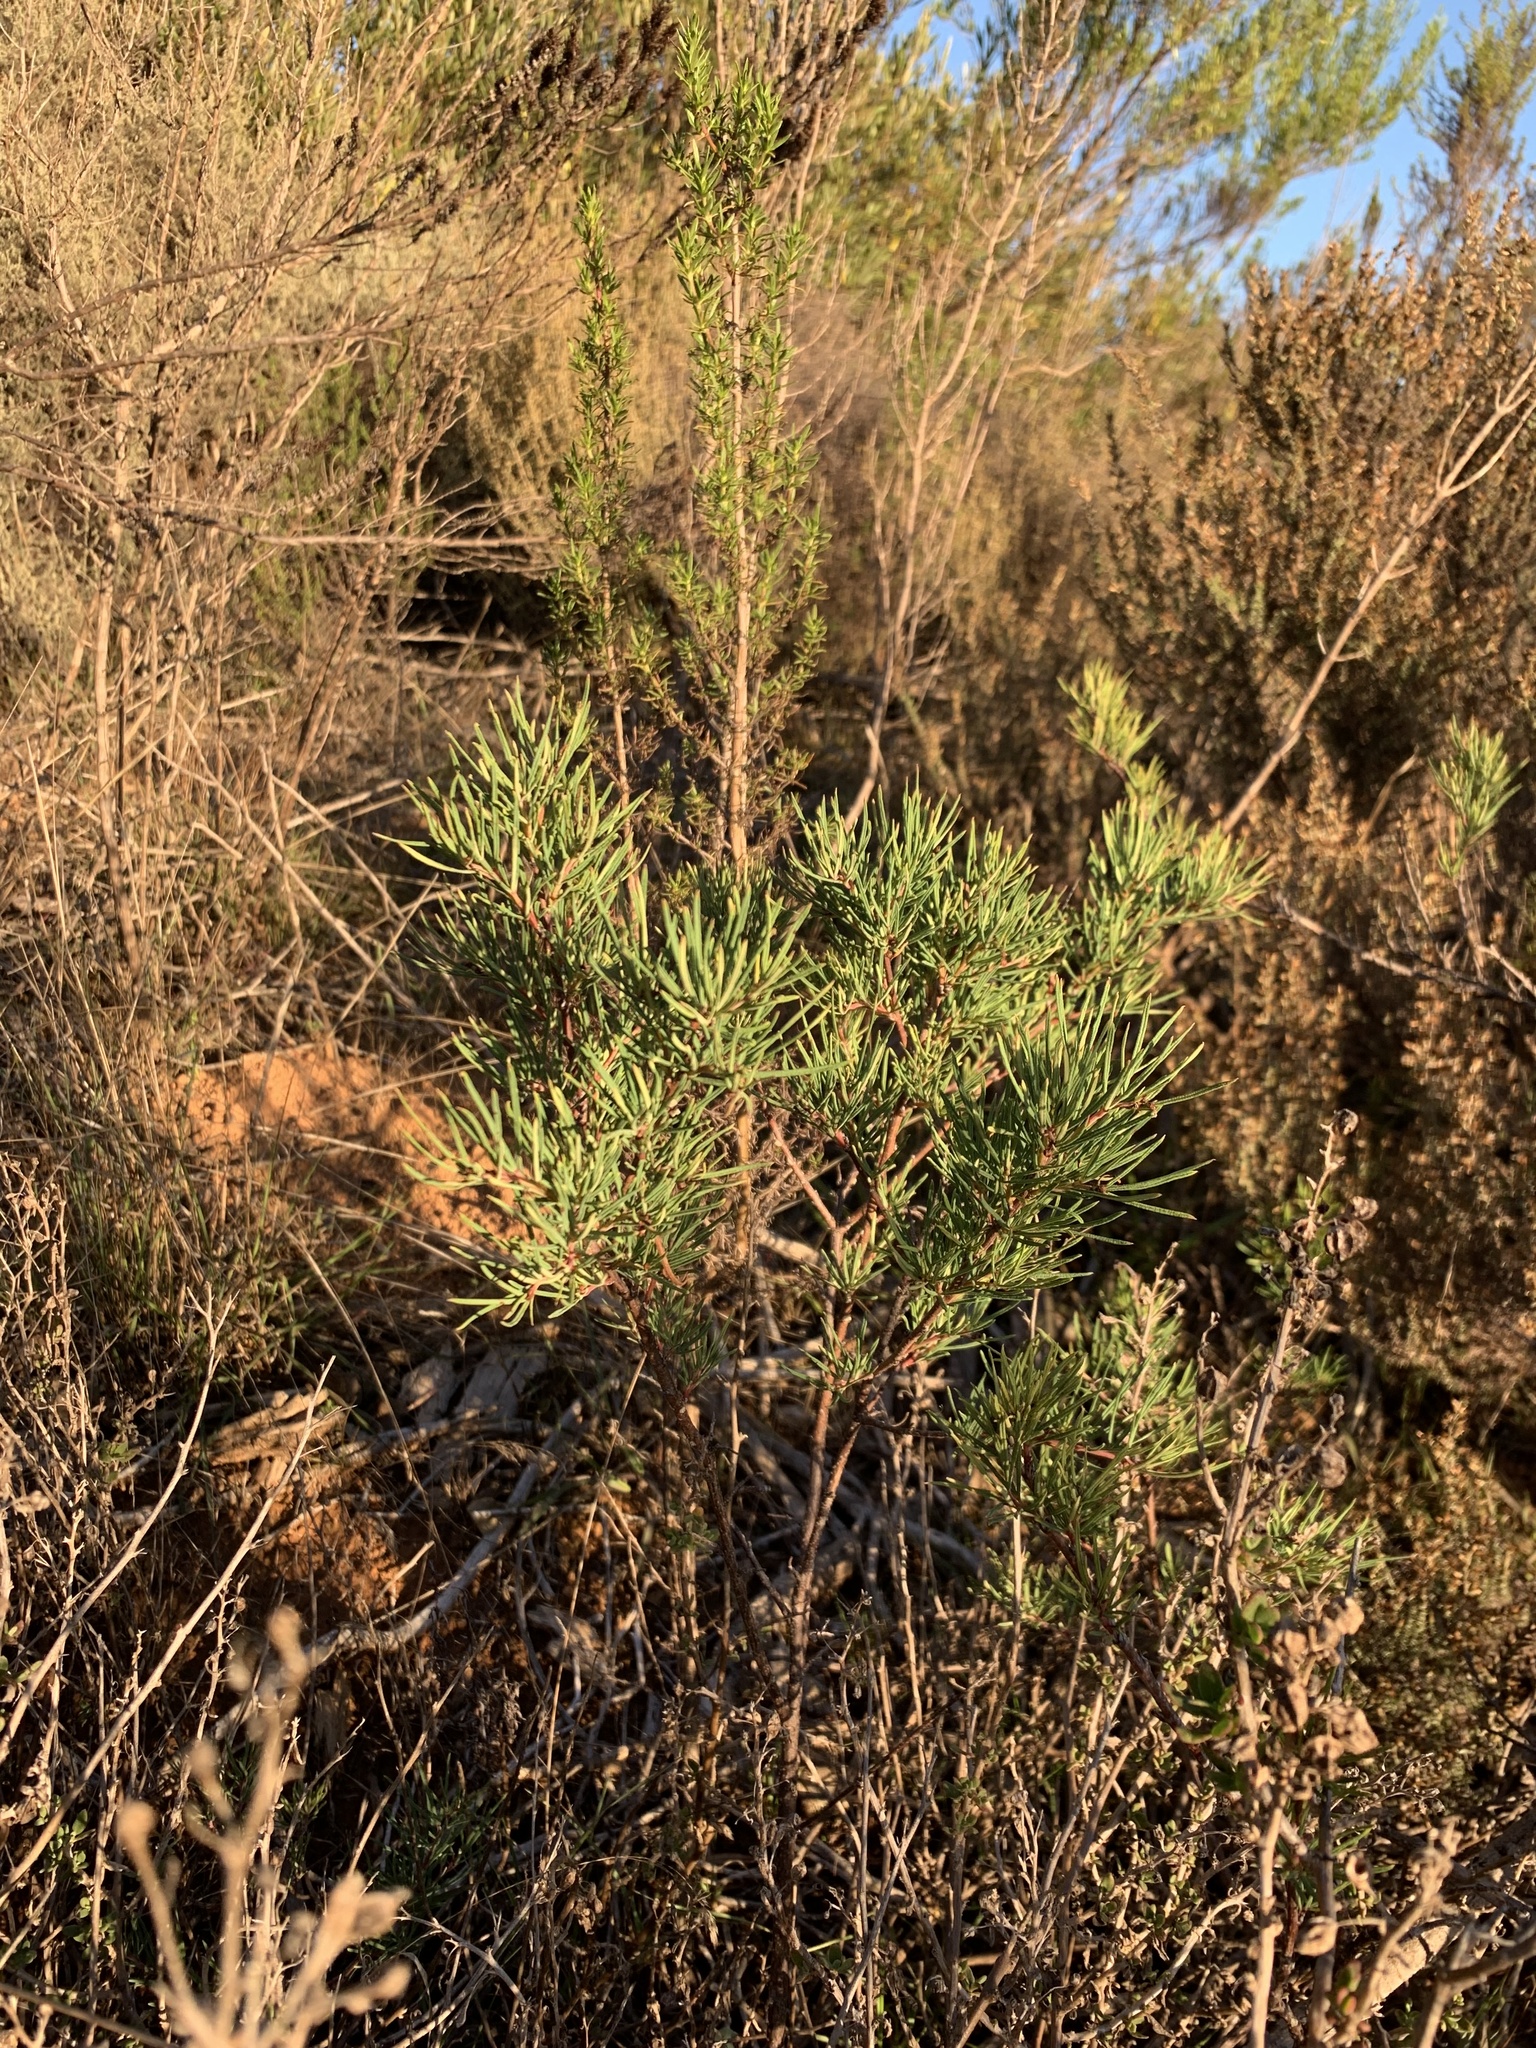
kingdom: Plantae
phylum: Tracheophyta
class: Magnoliopsida
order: Sapindales
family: Anacardiaceae
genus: Searsia
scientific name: Searsia rosmarinifolia
